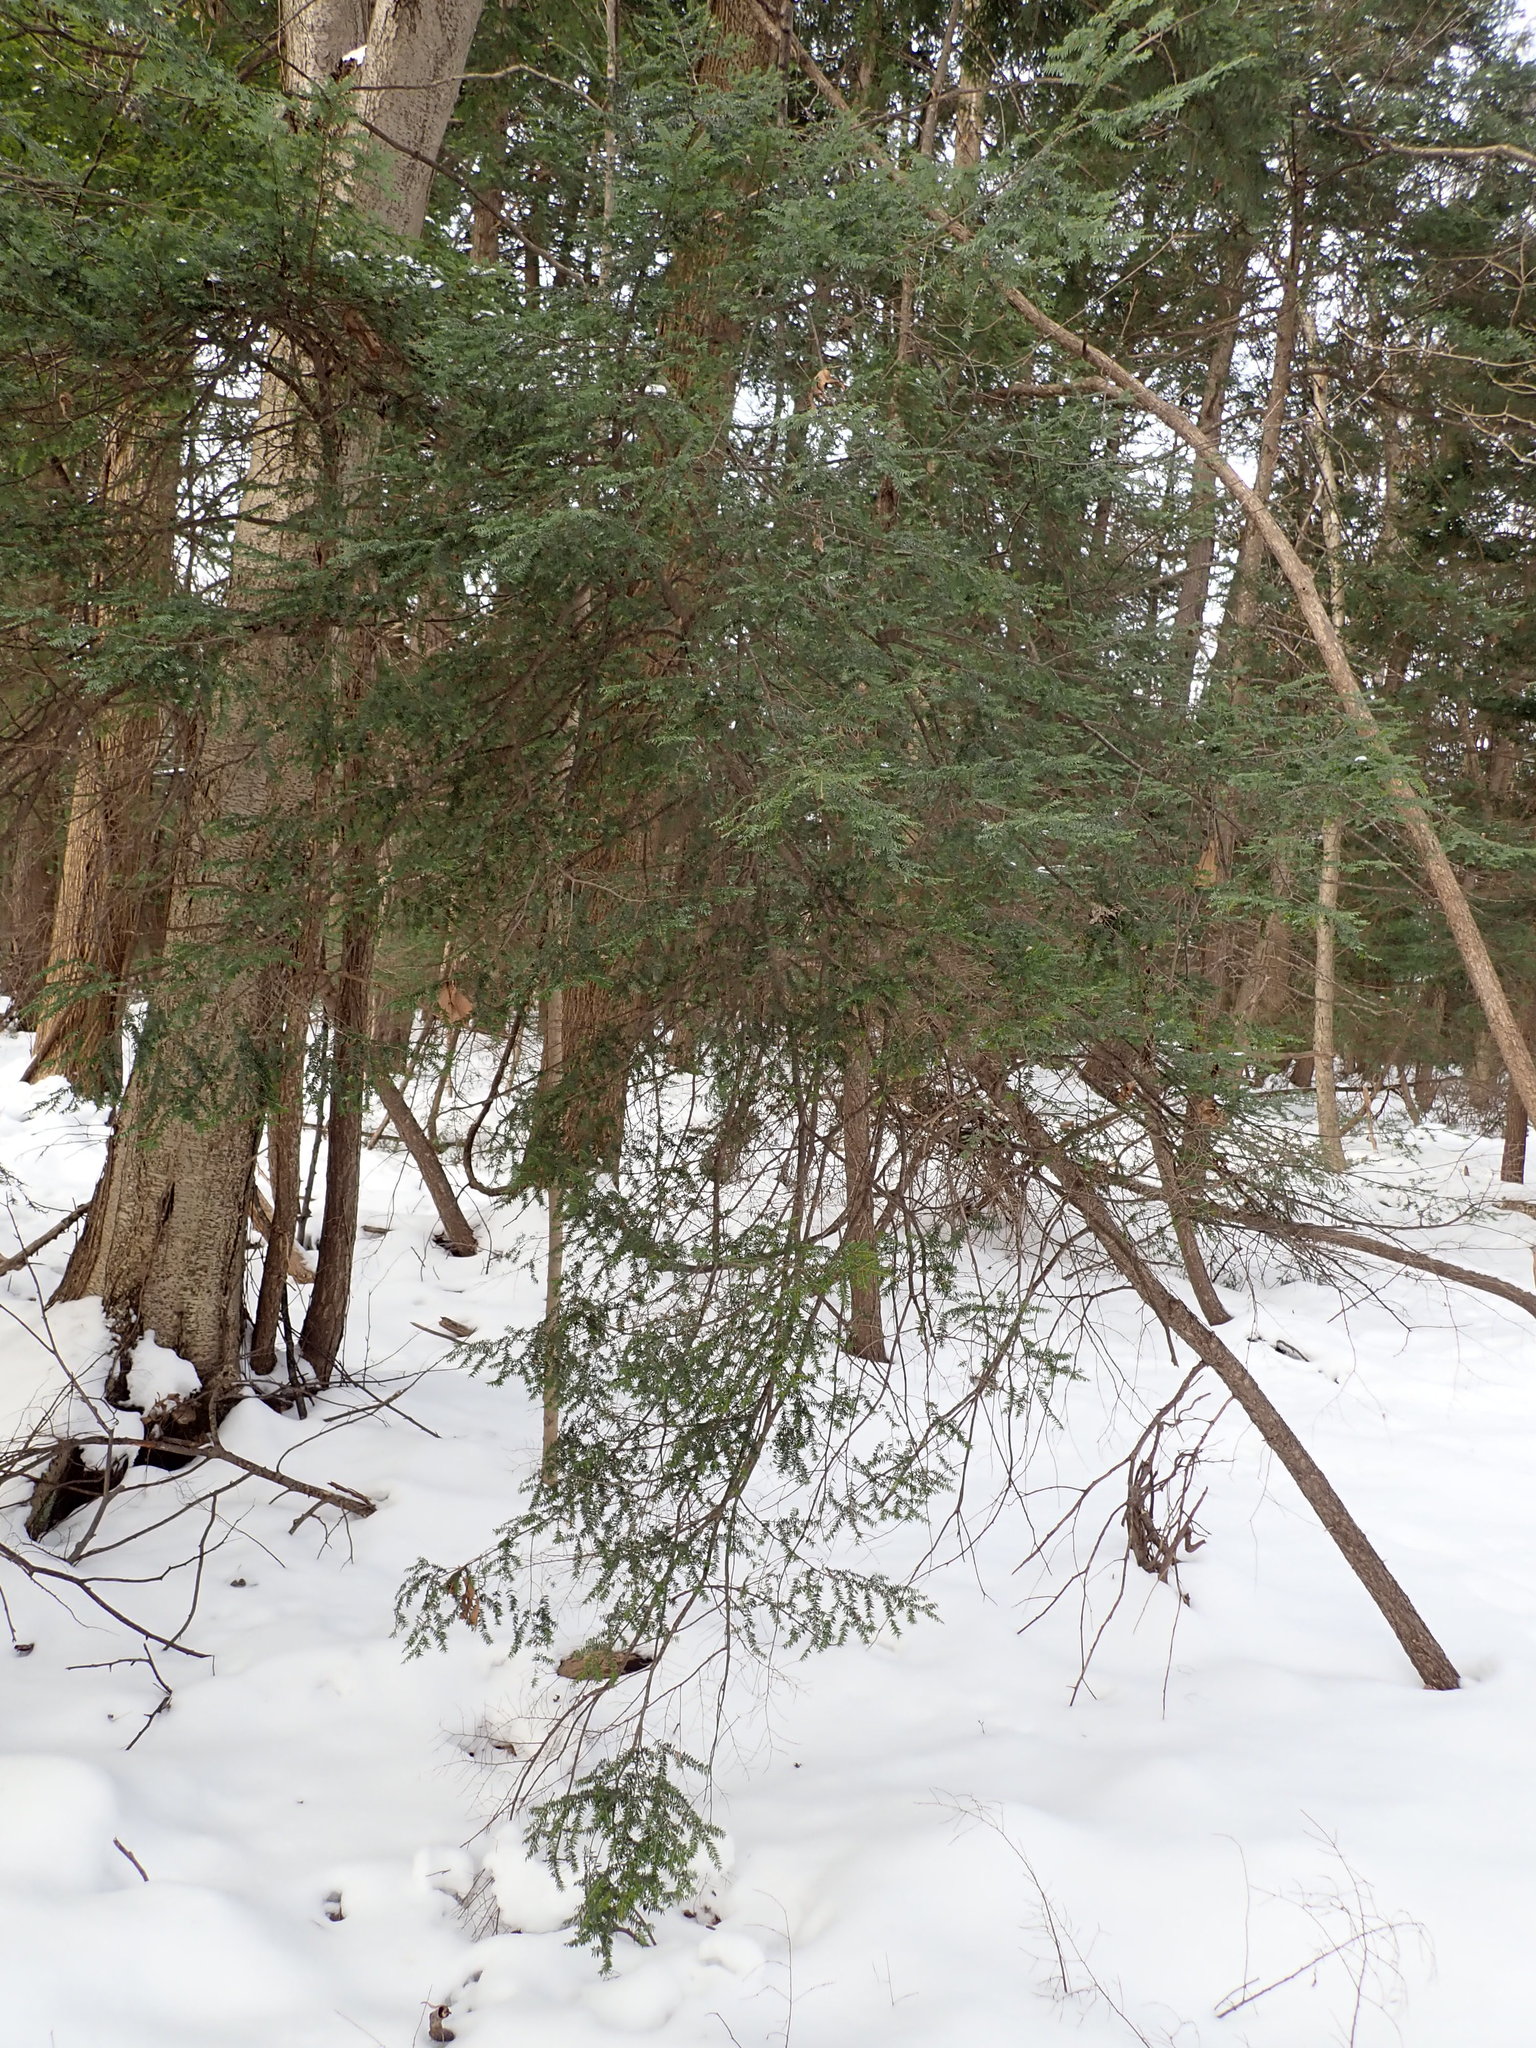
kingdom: Plantae
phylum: Tracheophyta
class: Pinopsida
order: Pinales
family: Pinaceae
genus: Tsuga
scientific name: Tsuga canadensis
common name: Eastern hemlock
